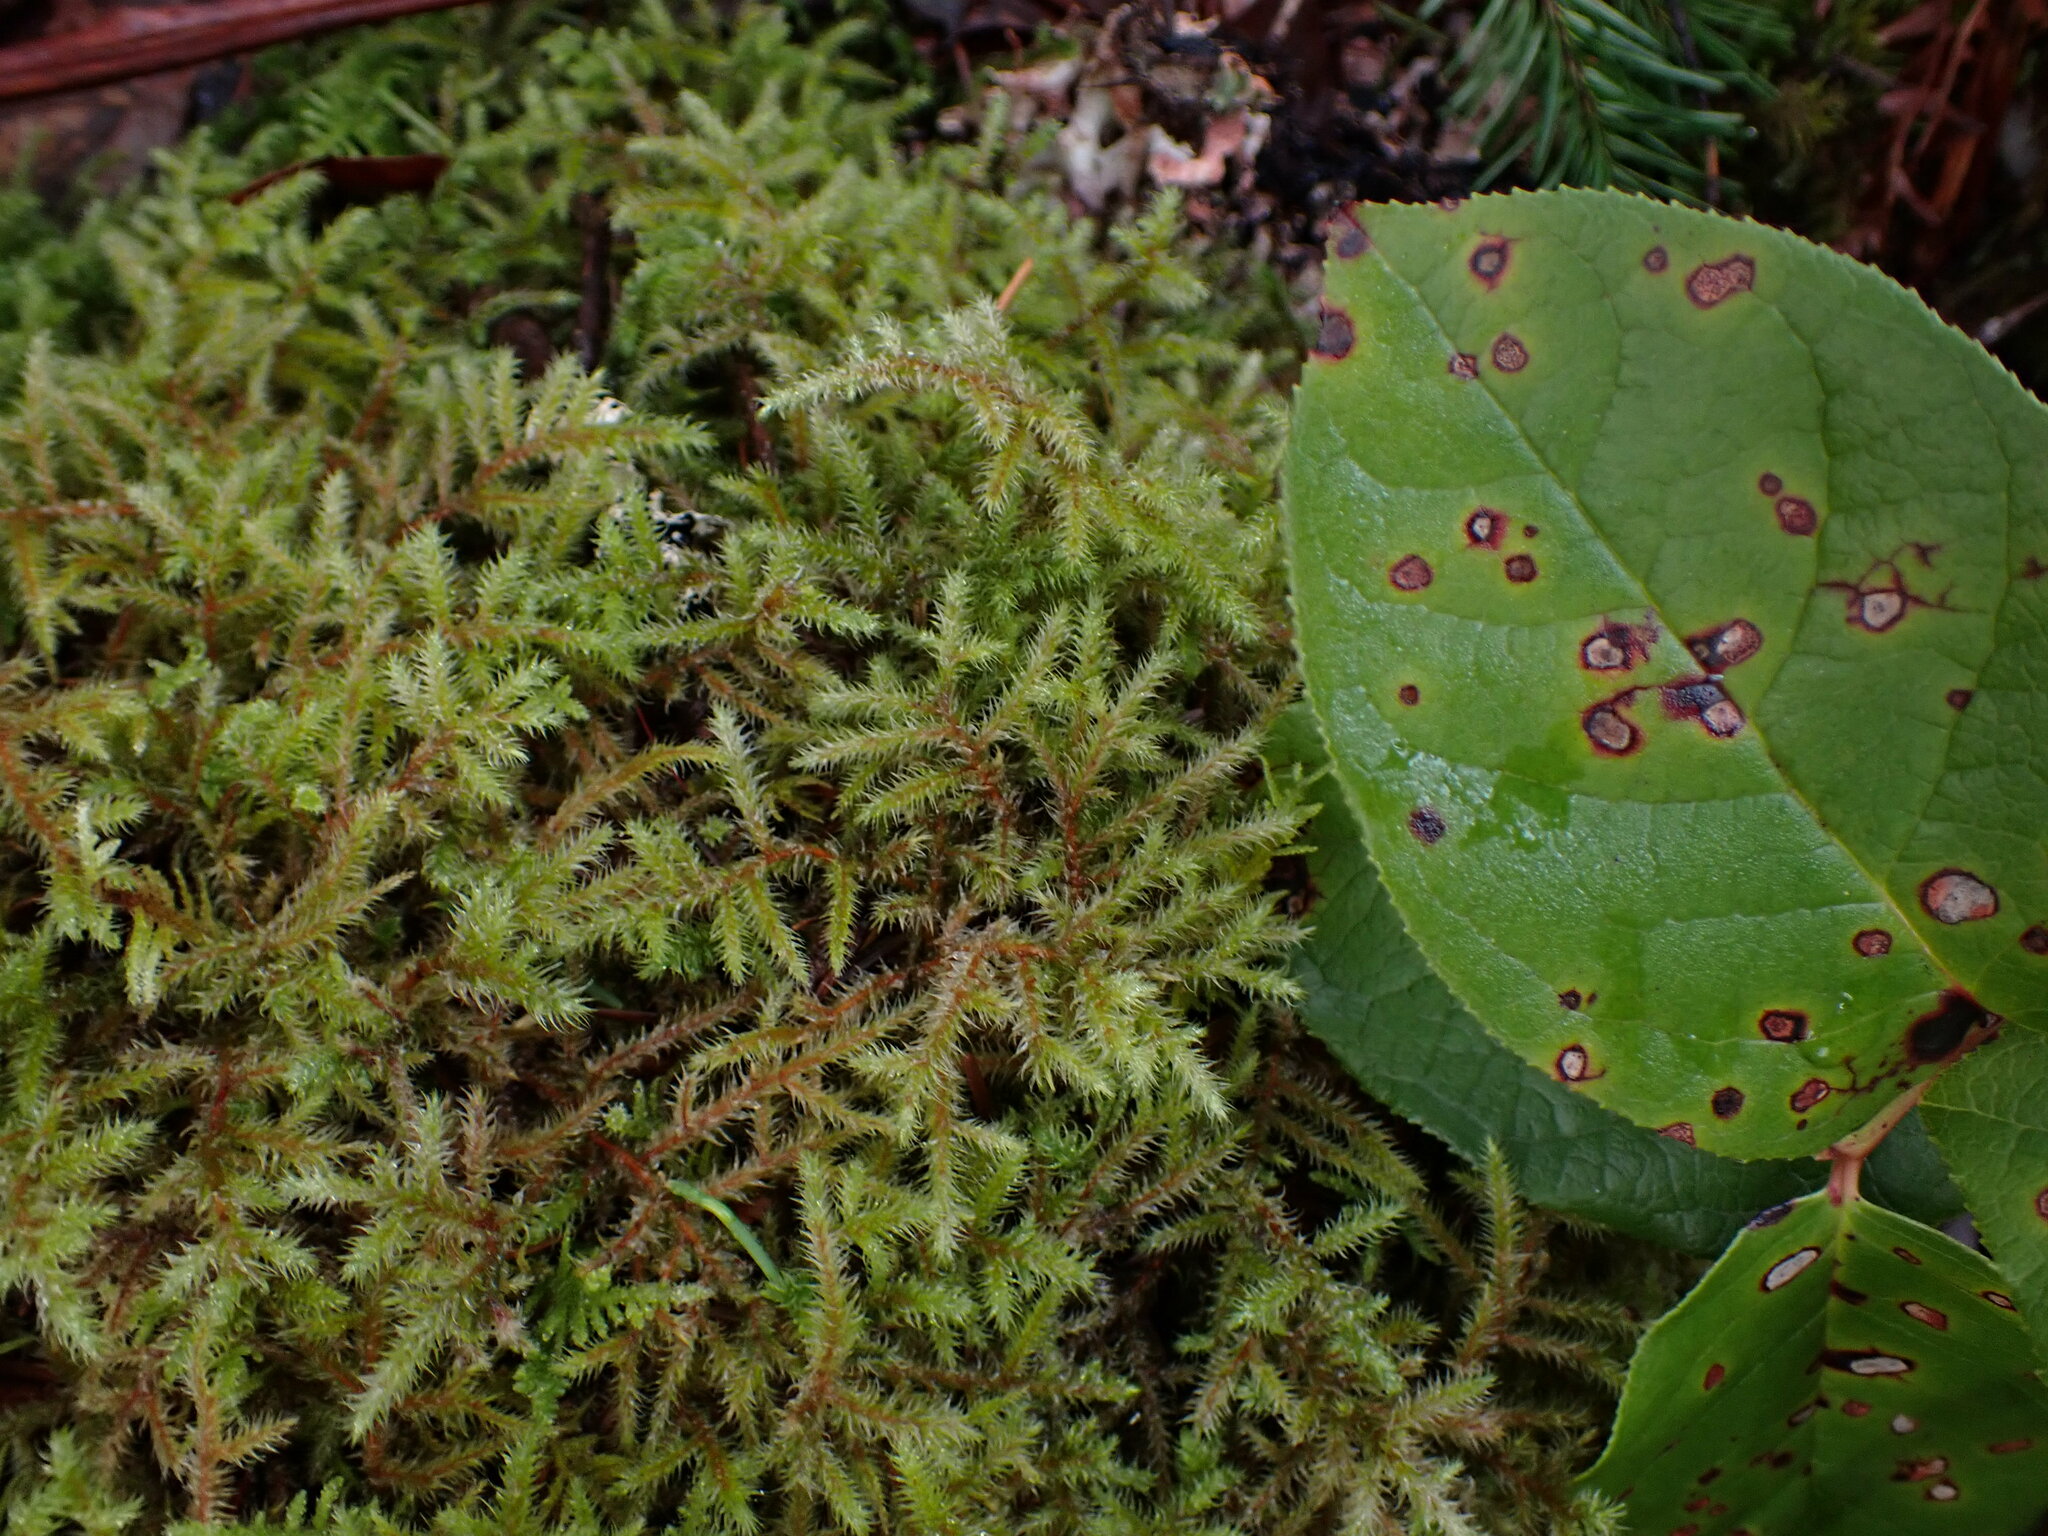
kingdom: Plantae
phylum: Bryophyta
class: Bryopsida
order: Hypnales
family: Hylocomiaceae
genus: Rhytidiadelphus
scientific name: Rhytidiadelphus loreus
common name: Lanky moss
